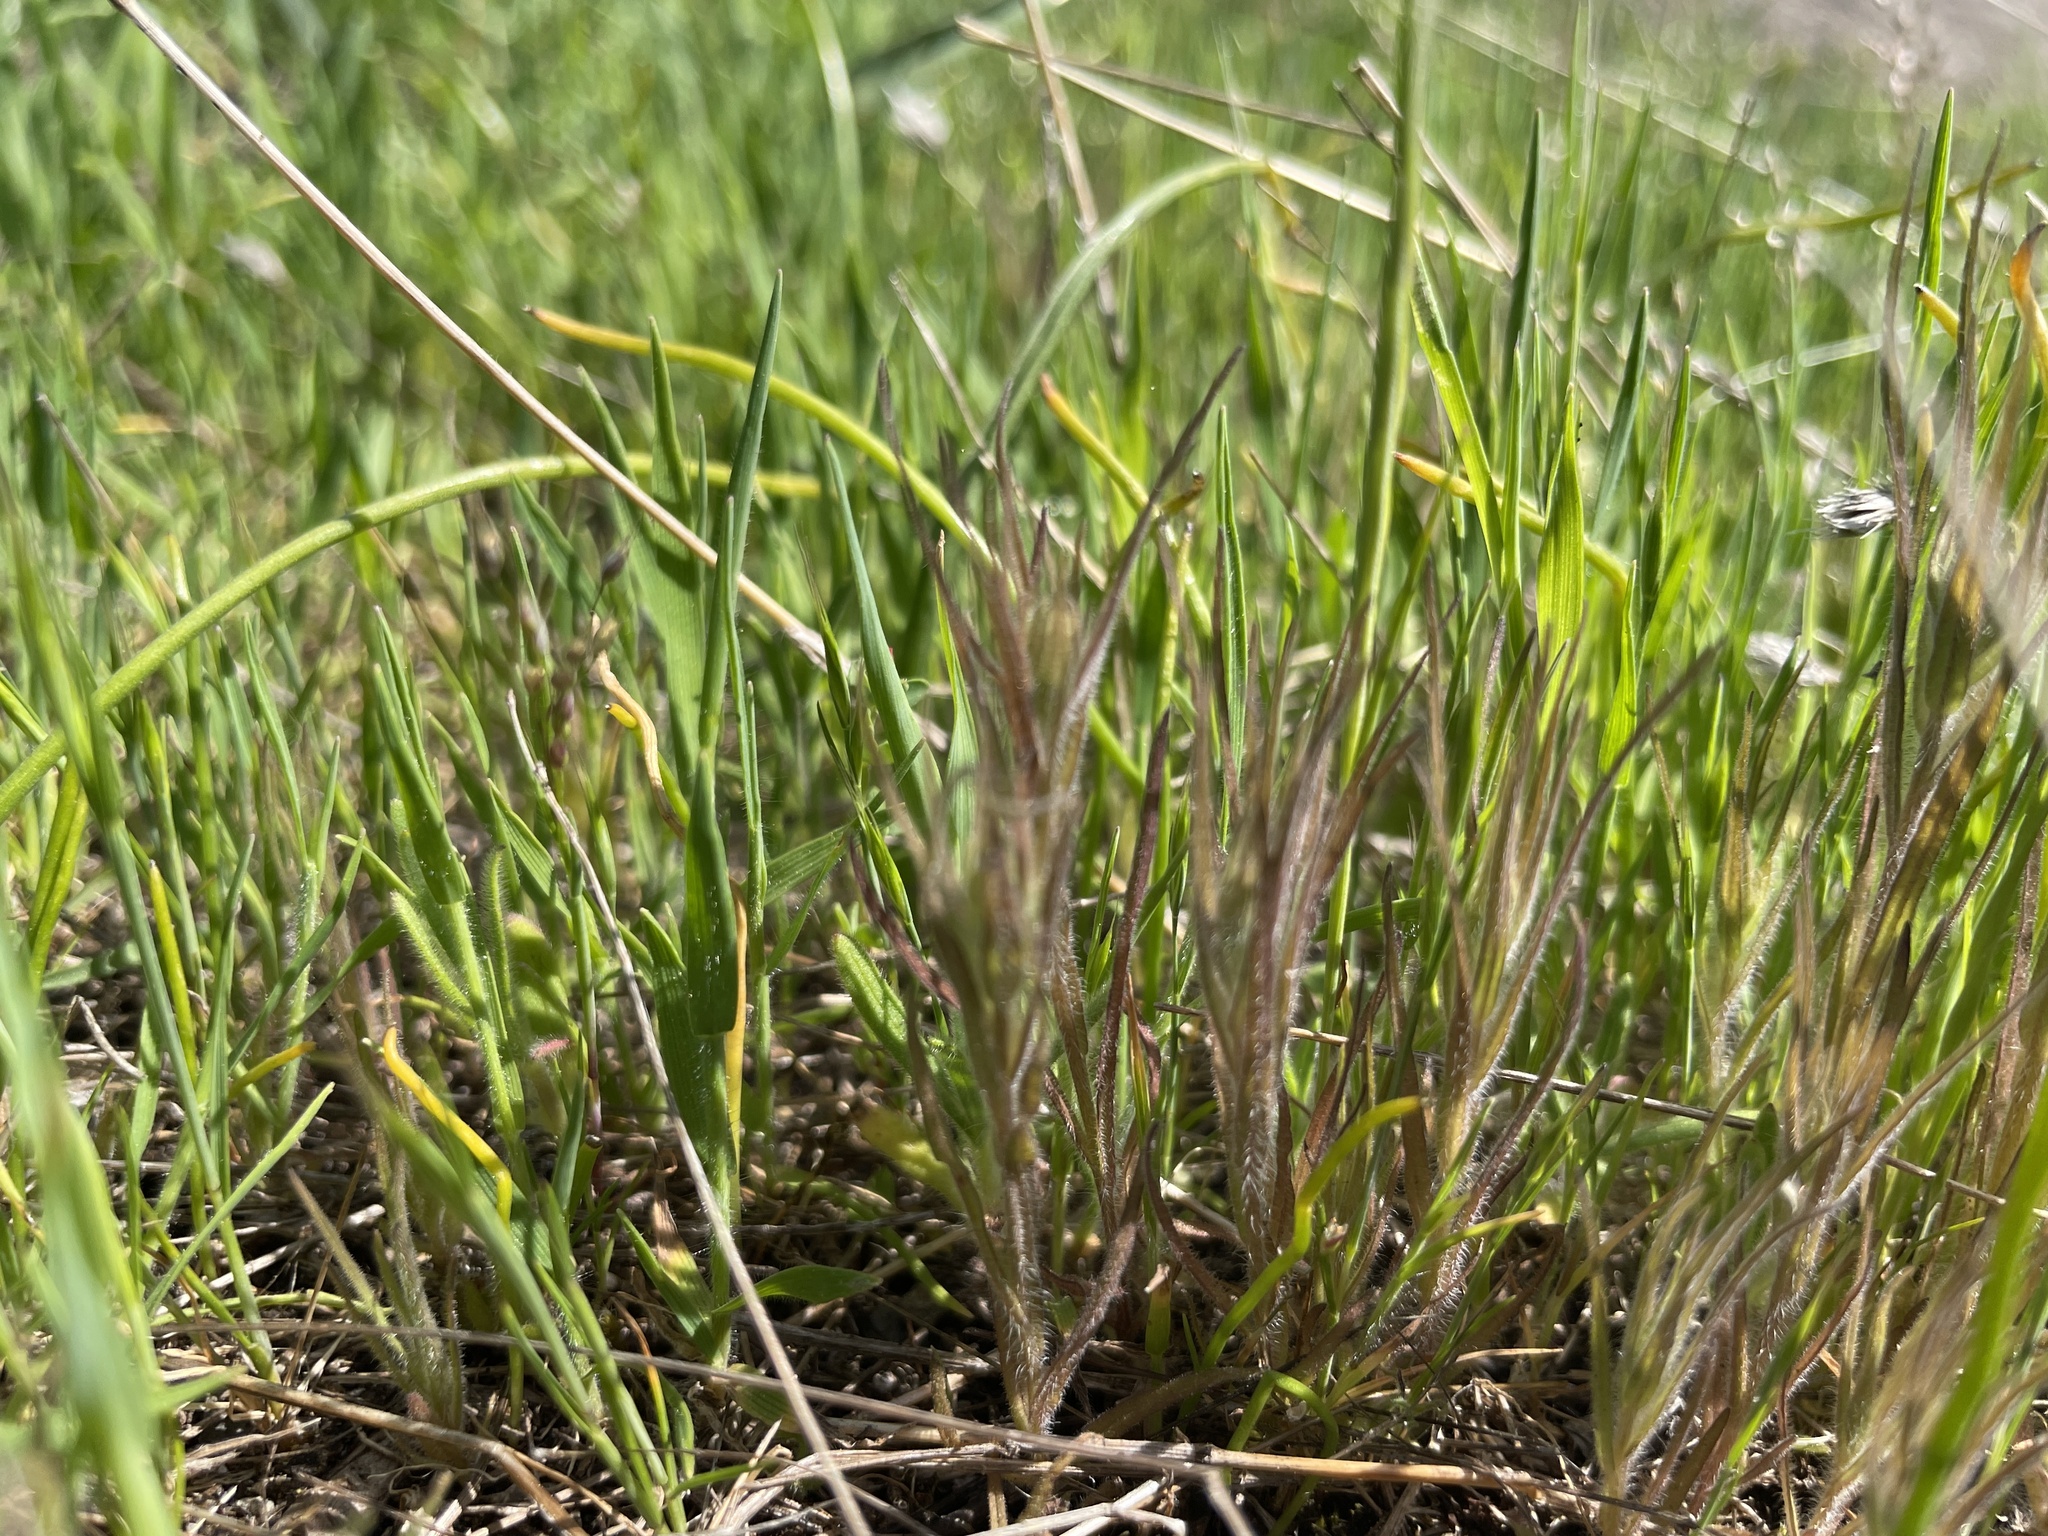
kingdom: Plantae
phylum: Tracheophyta
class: Magnoliopsida
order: Lamiales
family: Orobanchaceae
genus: Triphysaria
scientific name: Triphysaria pusilla
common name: Dwarf false owl-clover
